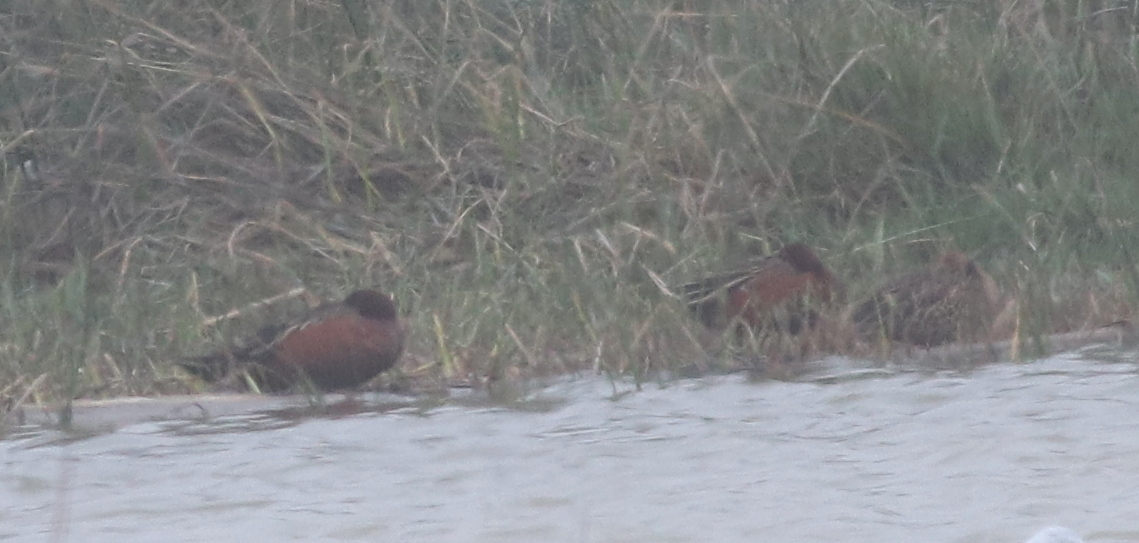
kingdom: Animalia
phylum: Chordata
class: Aves
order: Anseriformes
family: Anatidae
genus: Spatula
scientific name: Spatula cyanoptera
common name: Cinnamon teal
